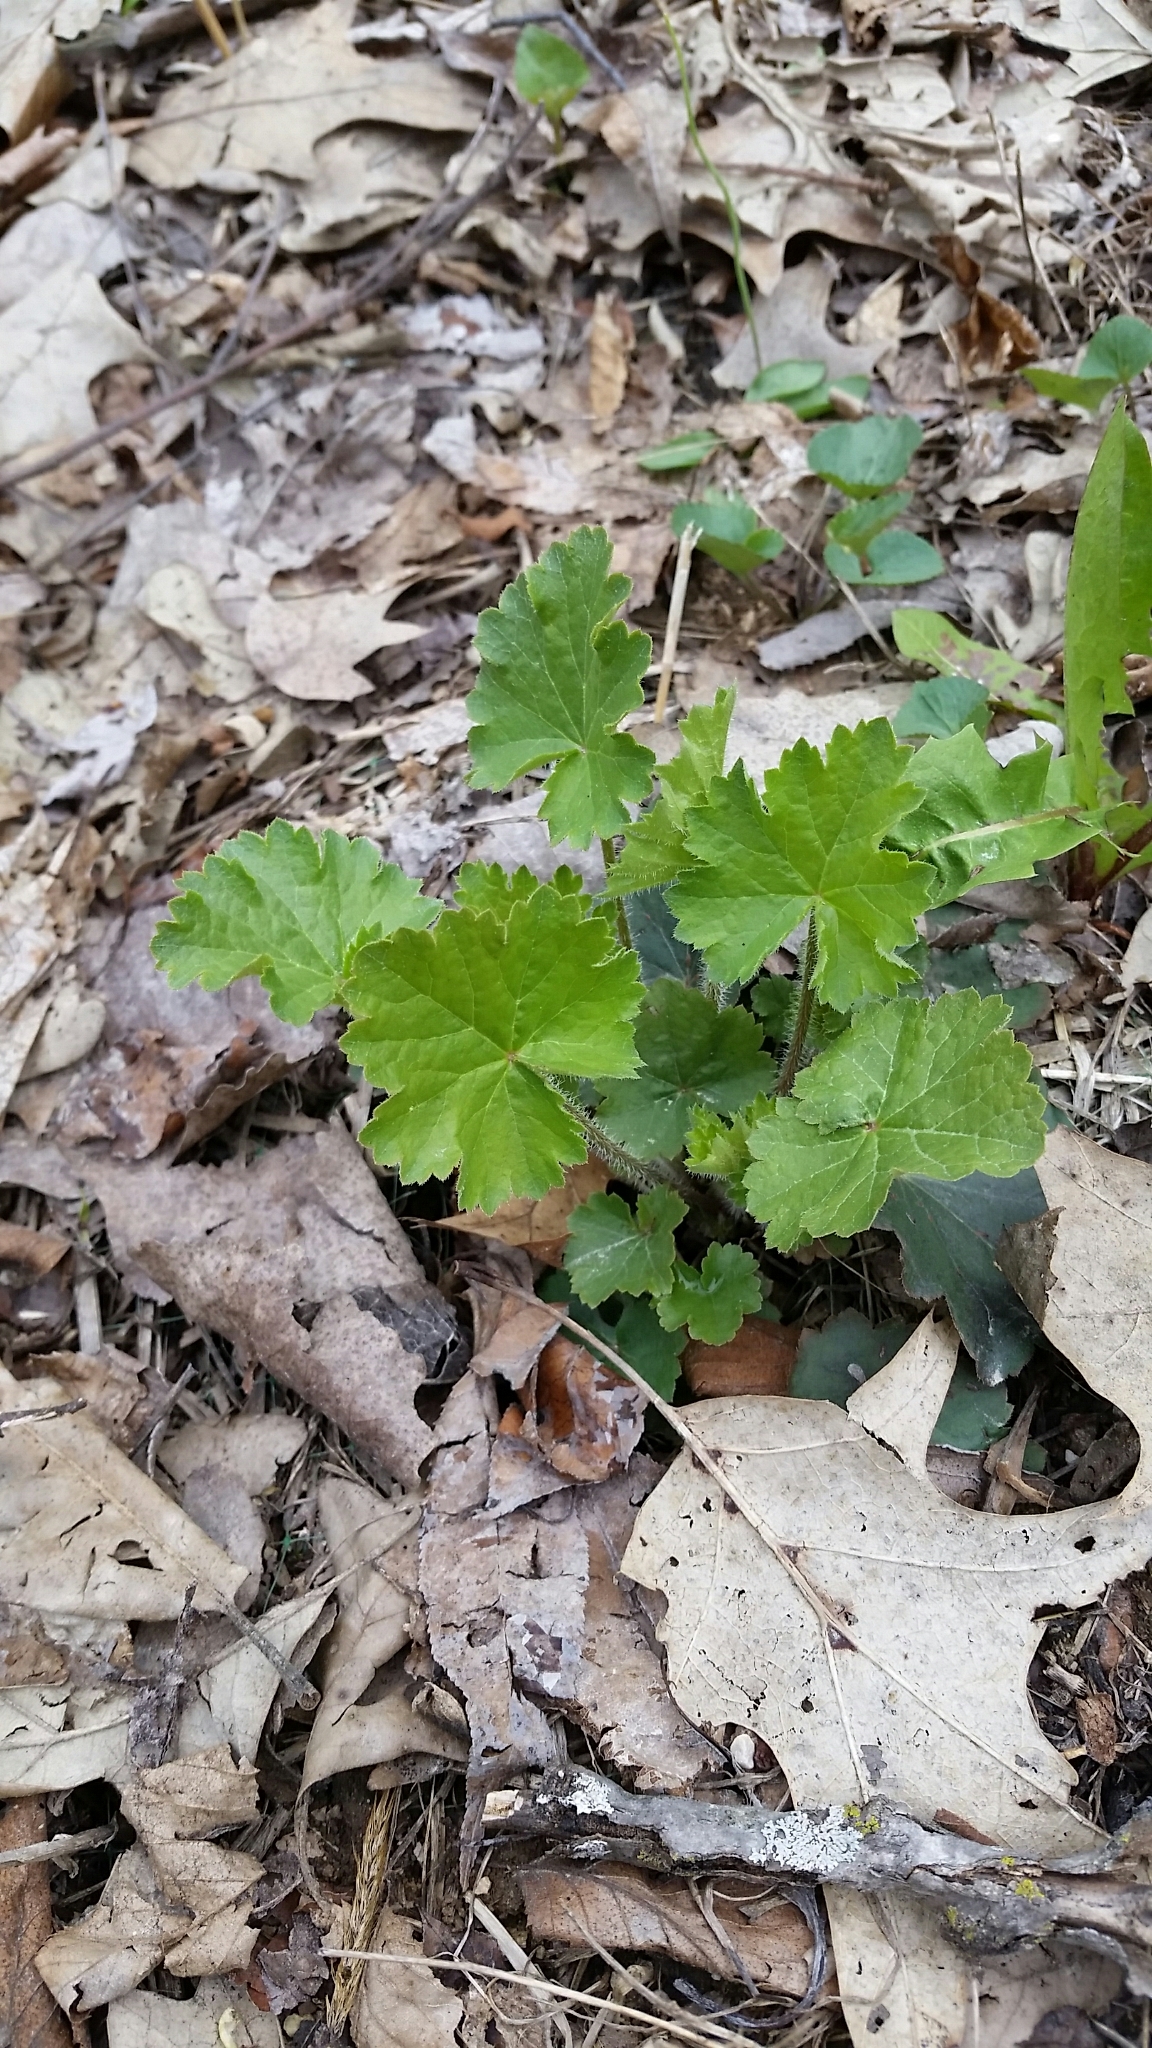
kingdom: Plantae
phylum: Tracheophyta
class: Magnoliopsida
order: Saxifragales
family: Saxifragaceae
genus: Heuchera
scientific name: Heuchera richardsonii
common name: Richardson's alumroot
